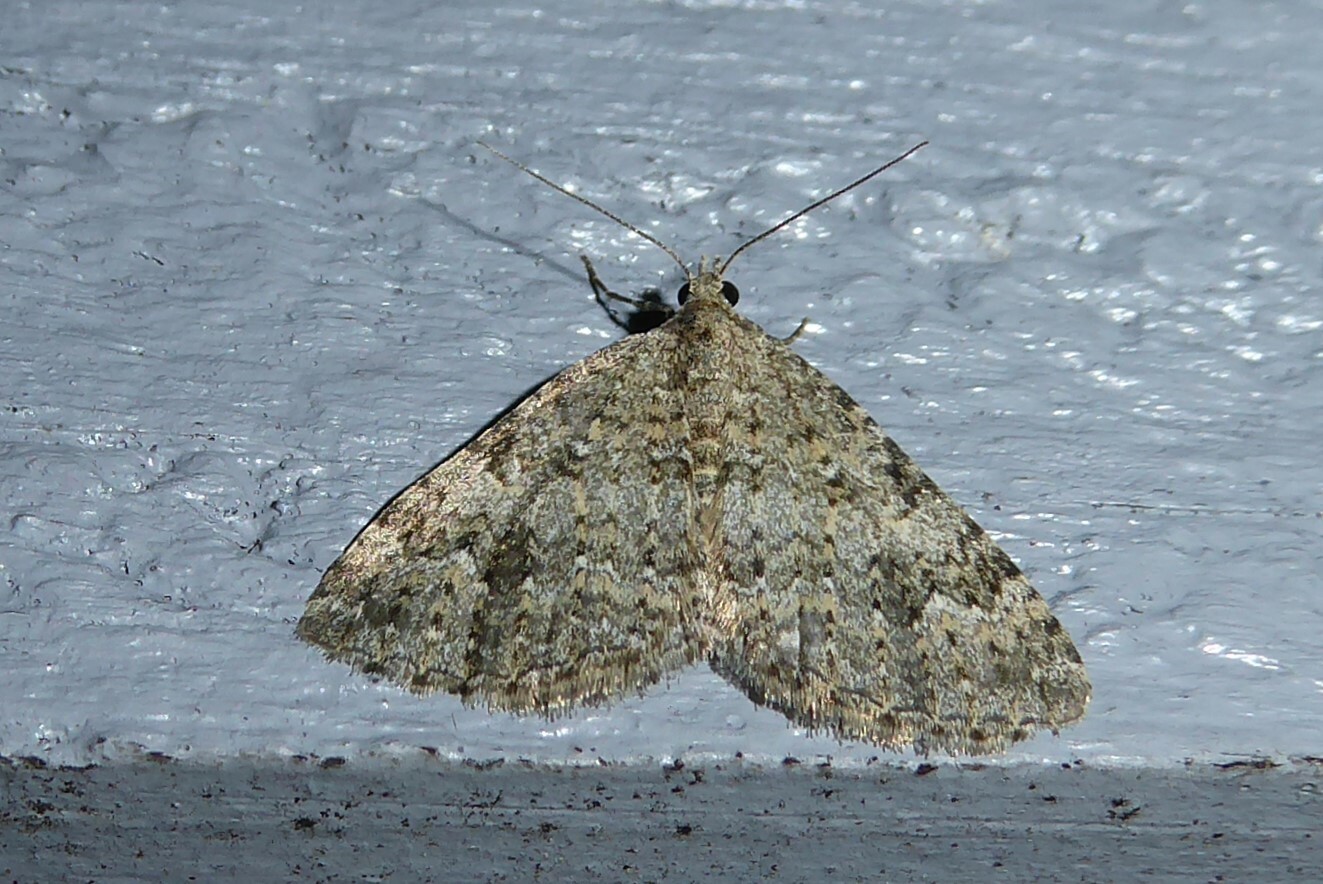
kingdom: Animalia
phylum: Arthropoda
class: Insecta
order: Lepidoptera
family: Geometridae
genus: Helastia
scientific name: Helastia corcularia
